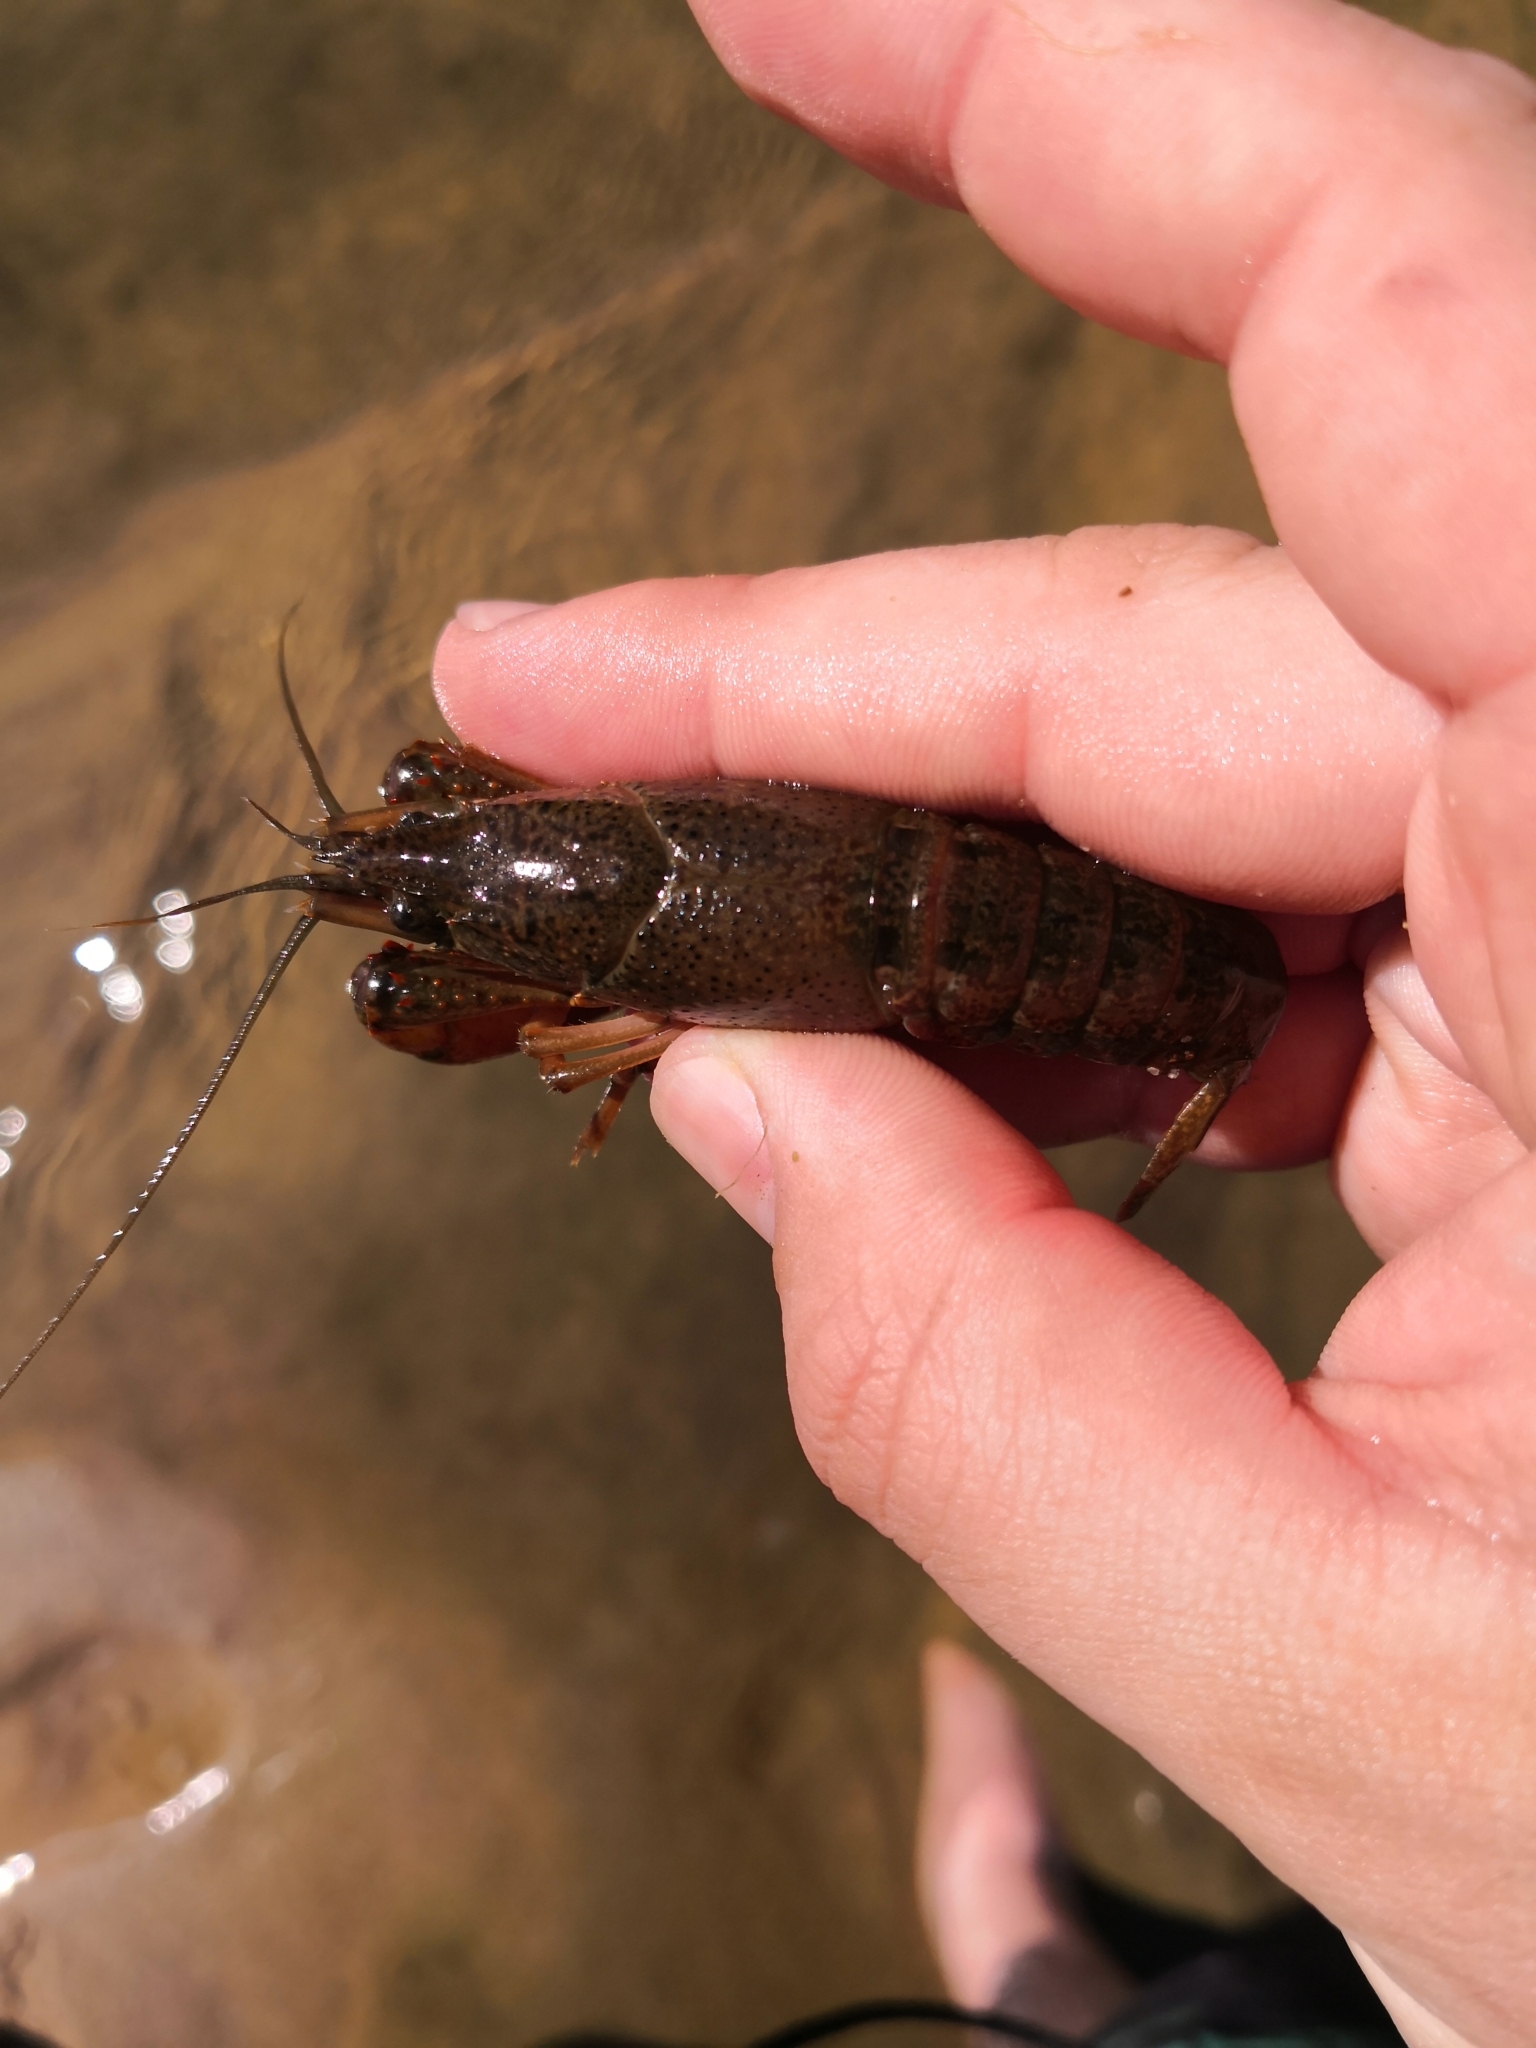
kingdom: Animalia
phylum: Arthropoda
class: Malacostraca
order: Decapoda
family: Cambaridae
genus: Procambarus
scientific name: Procambarus clarkii
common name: Red swamp crayfish
